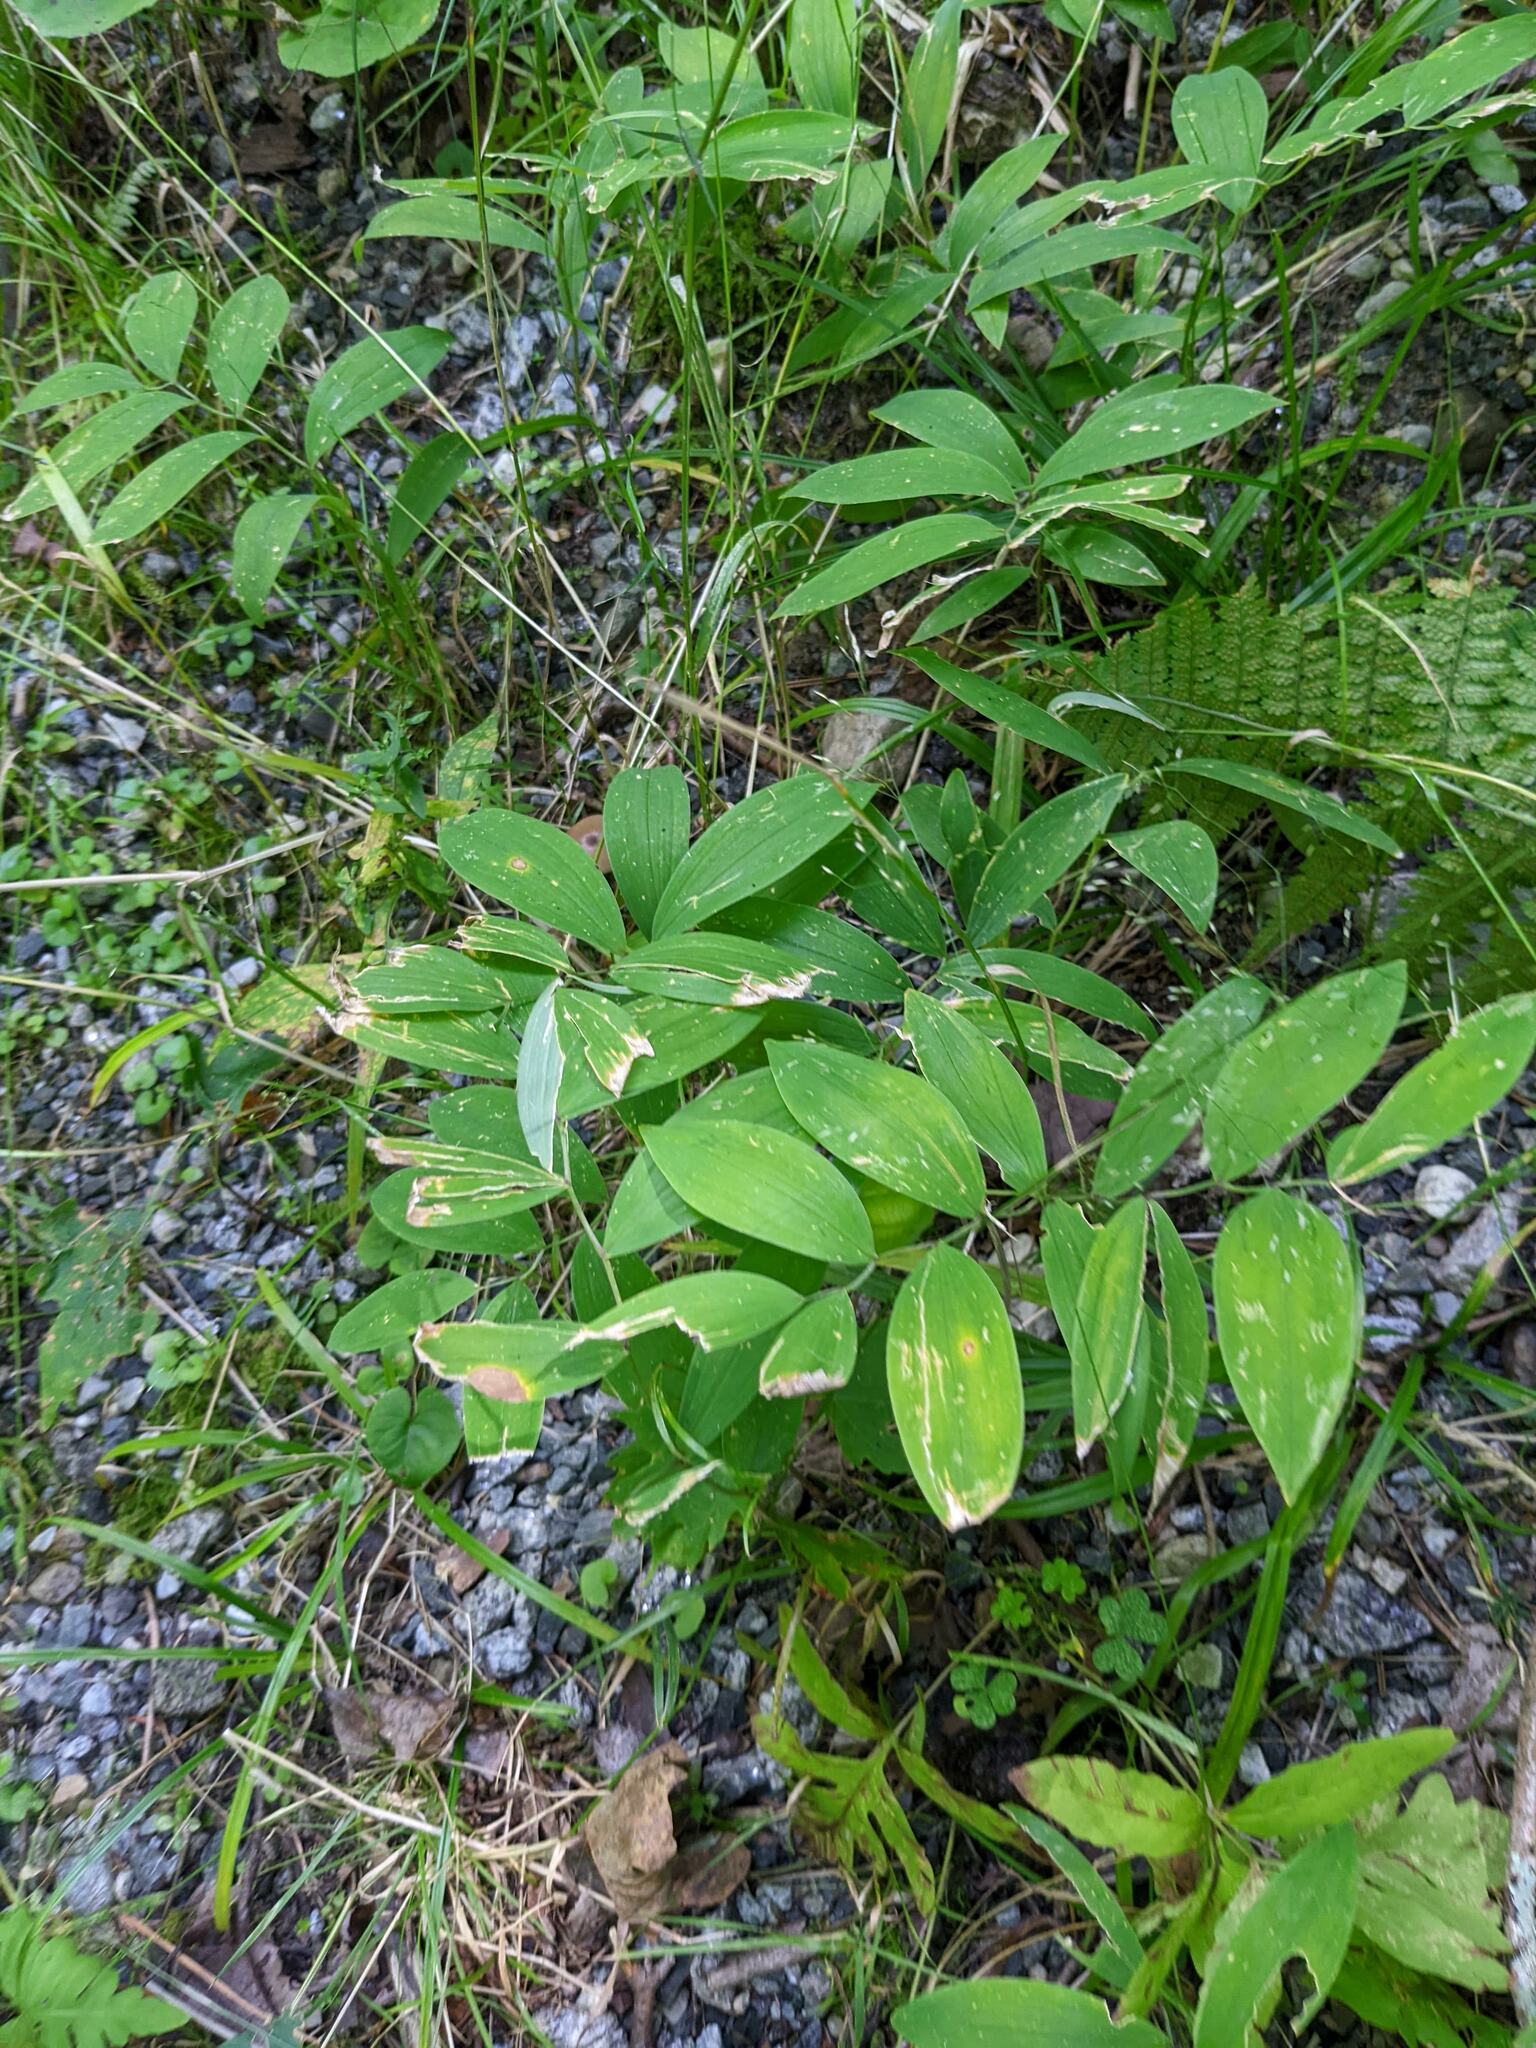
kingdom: Plantae
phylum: Tracheophyta
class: Liliopsida
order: Liliales
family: Colchicaceae
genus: Uvularia
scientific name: Uvularia sessilifolia
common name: Straw-lily
